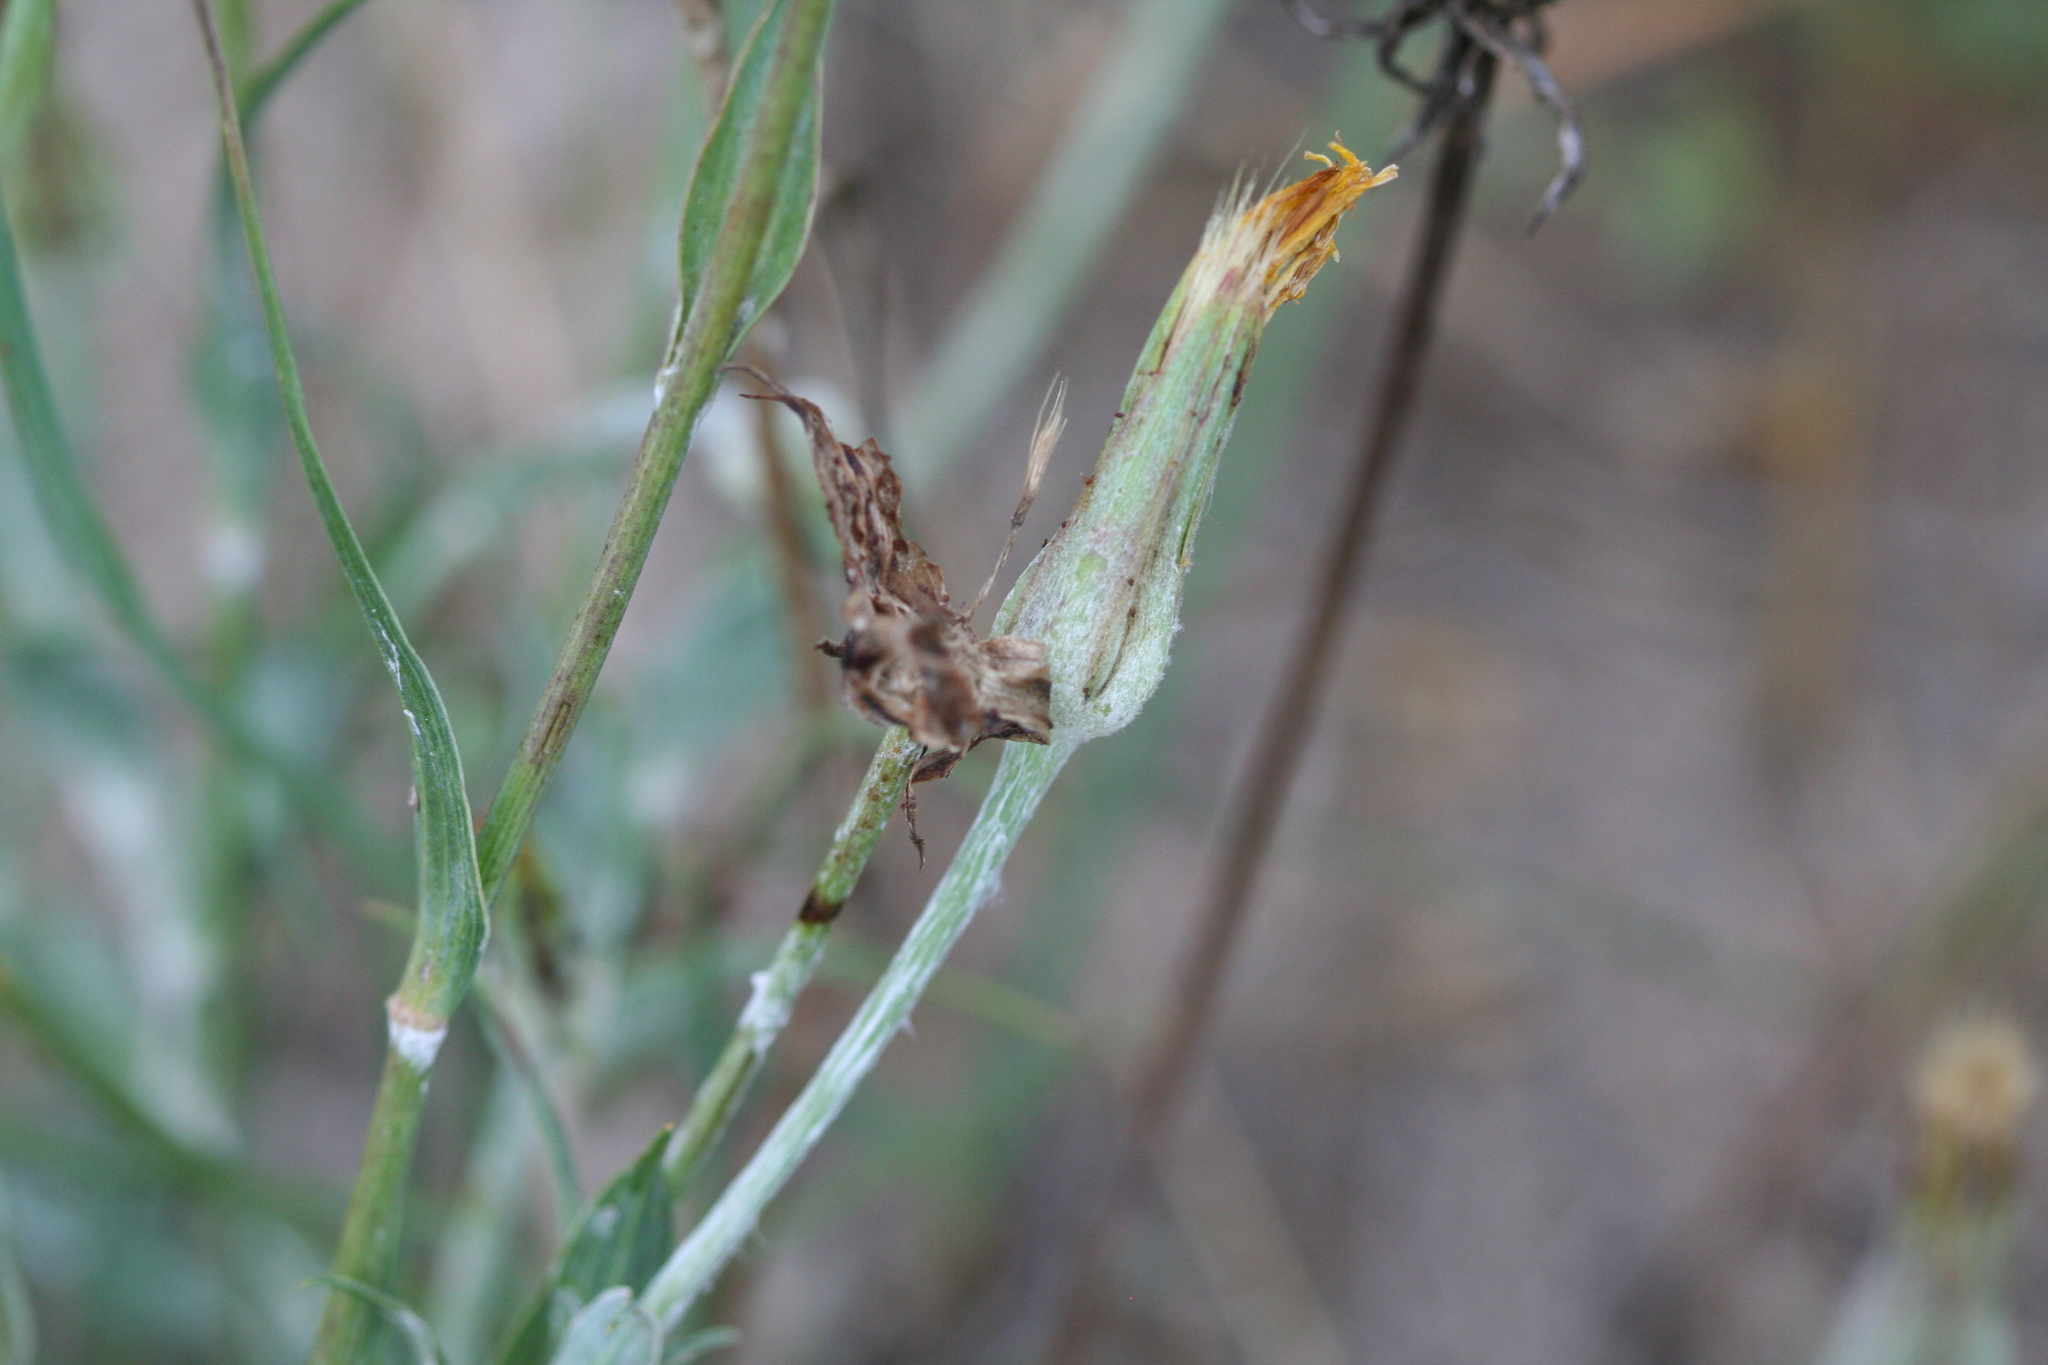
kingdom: Plantae
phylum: Tracheophyta
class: Magnoliopsida
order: Asterales
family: Asteraceae
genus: Tragopogon
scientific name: Tragopogon heterospermus
